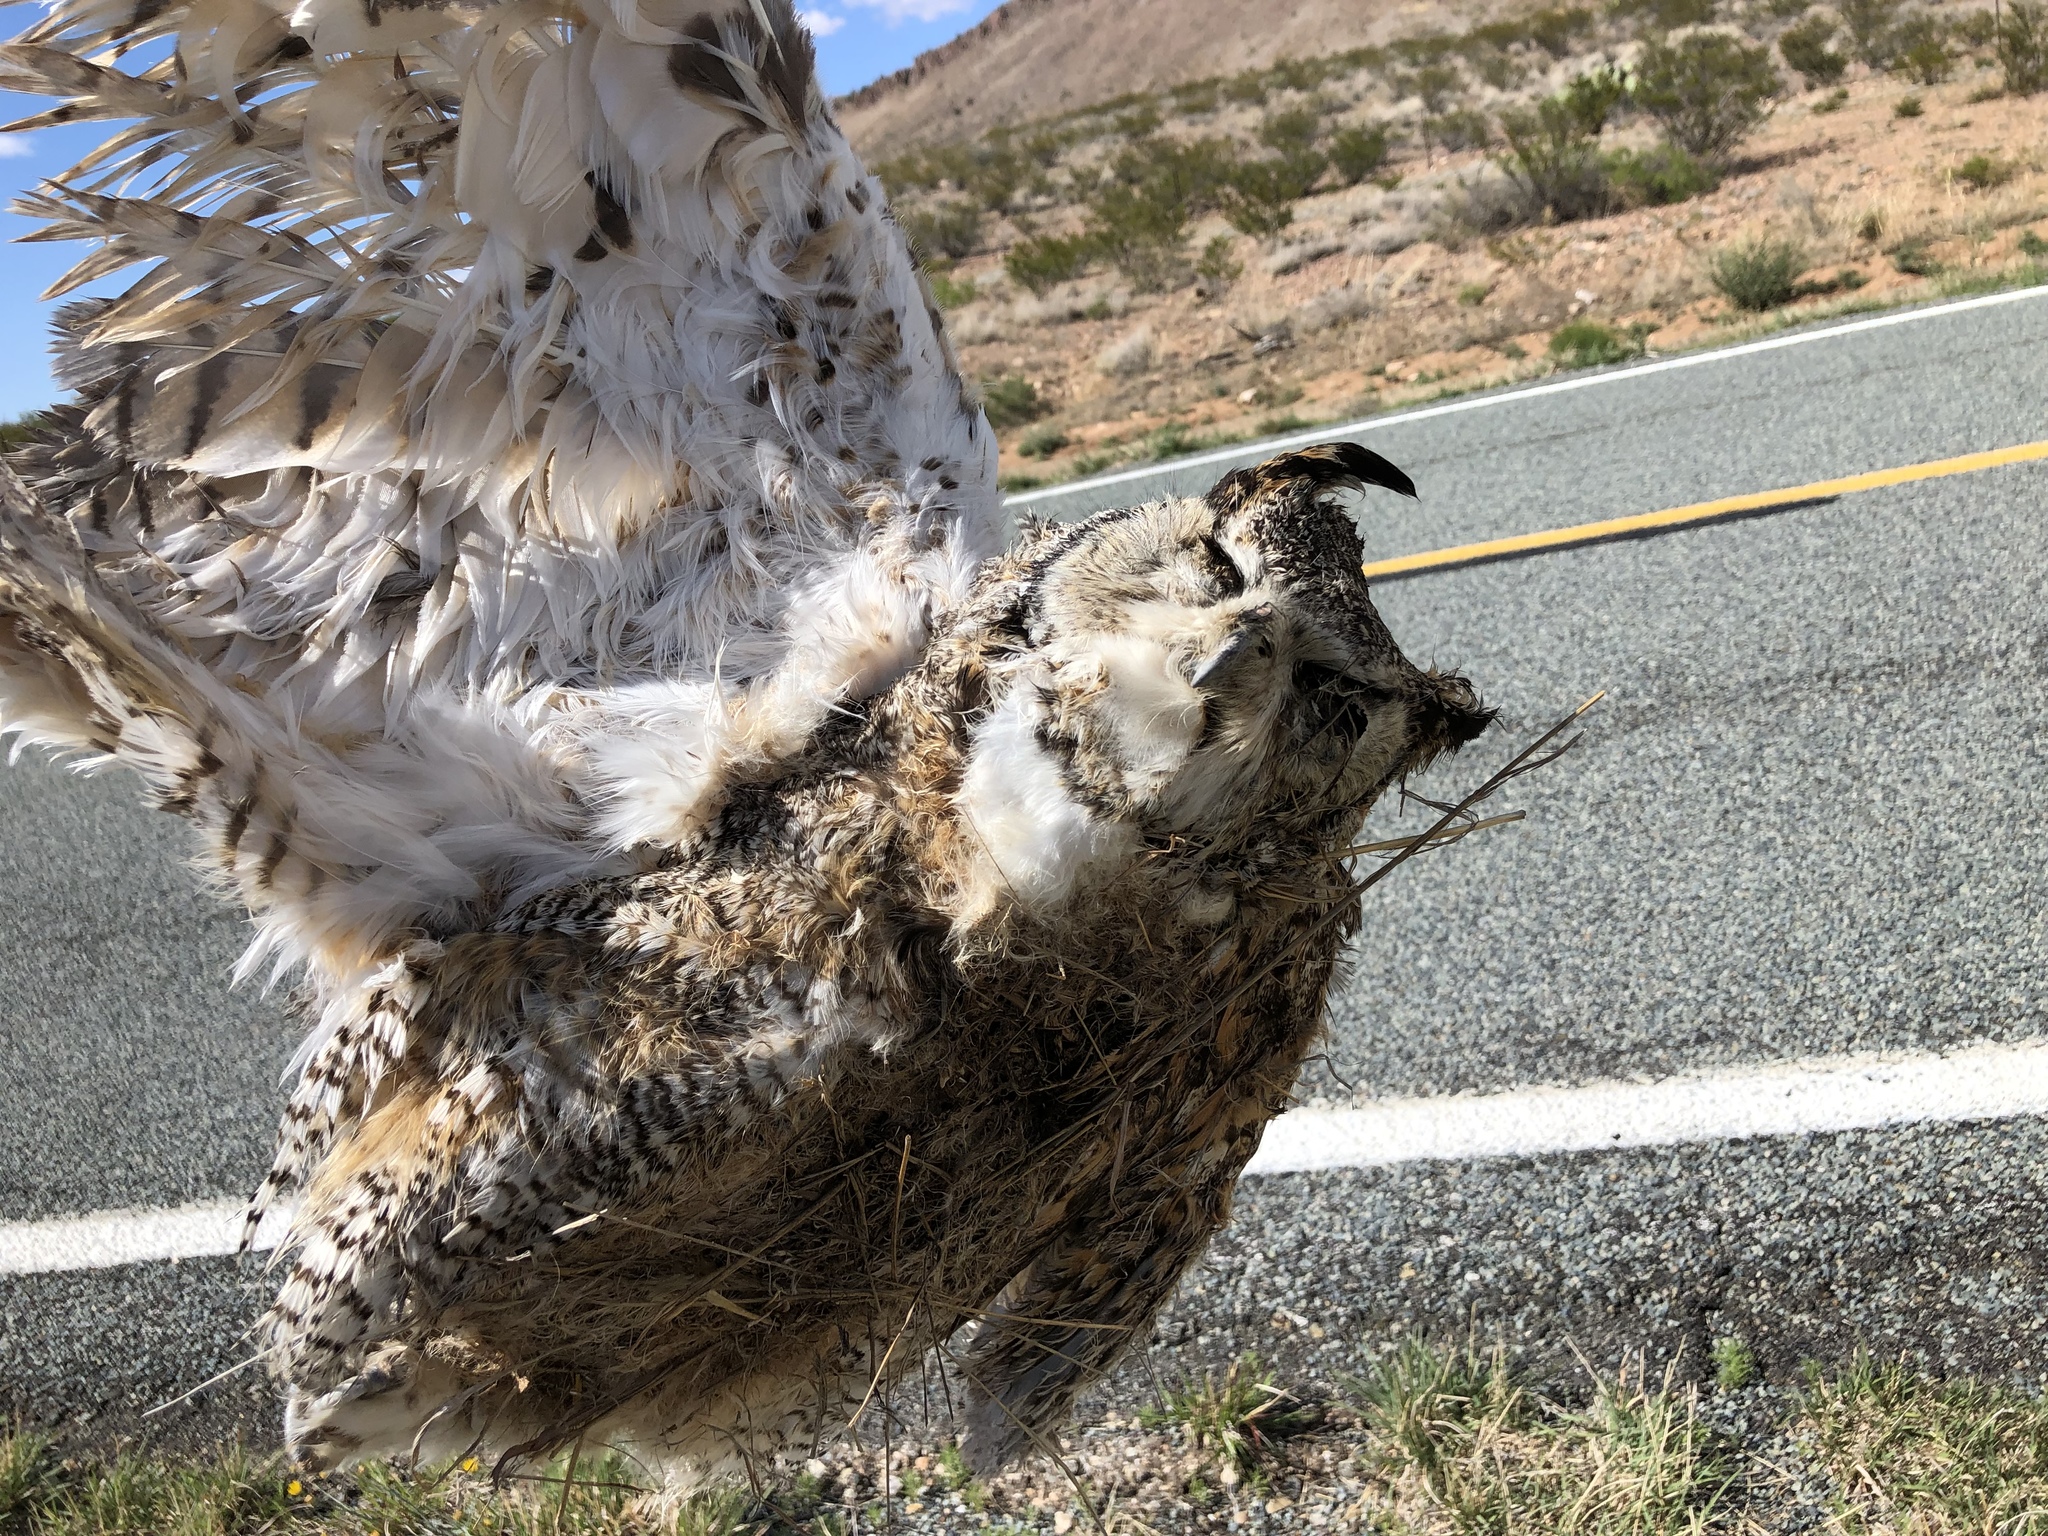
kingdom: Animalia
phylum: Chordata
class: Aves
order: Strigiformes
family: Strigidae
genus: Bubo
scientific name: Bubo virginianus
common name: Great horned owl
